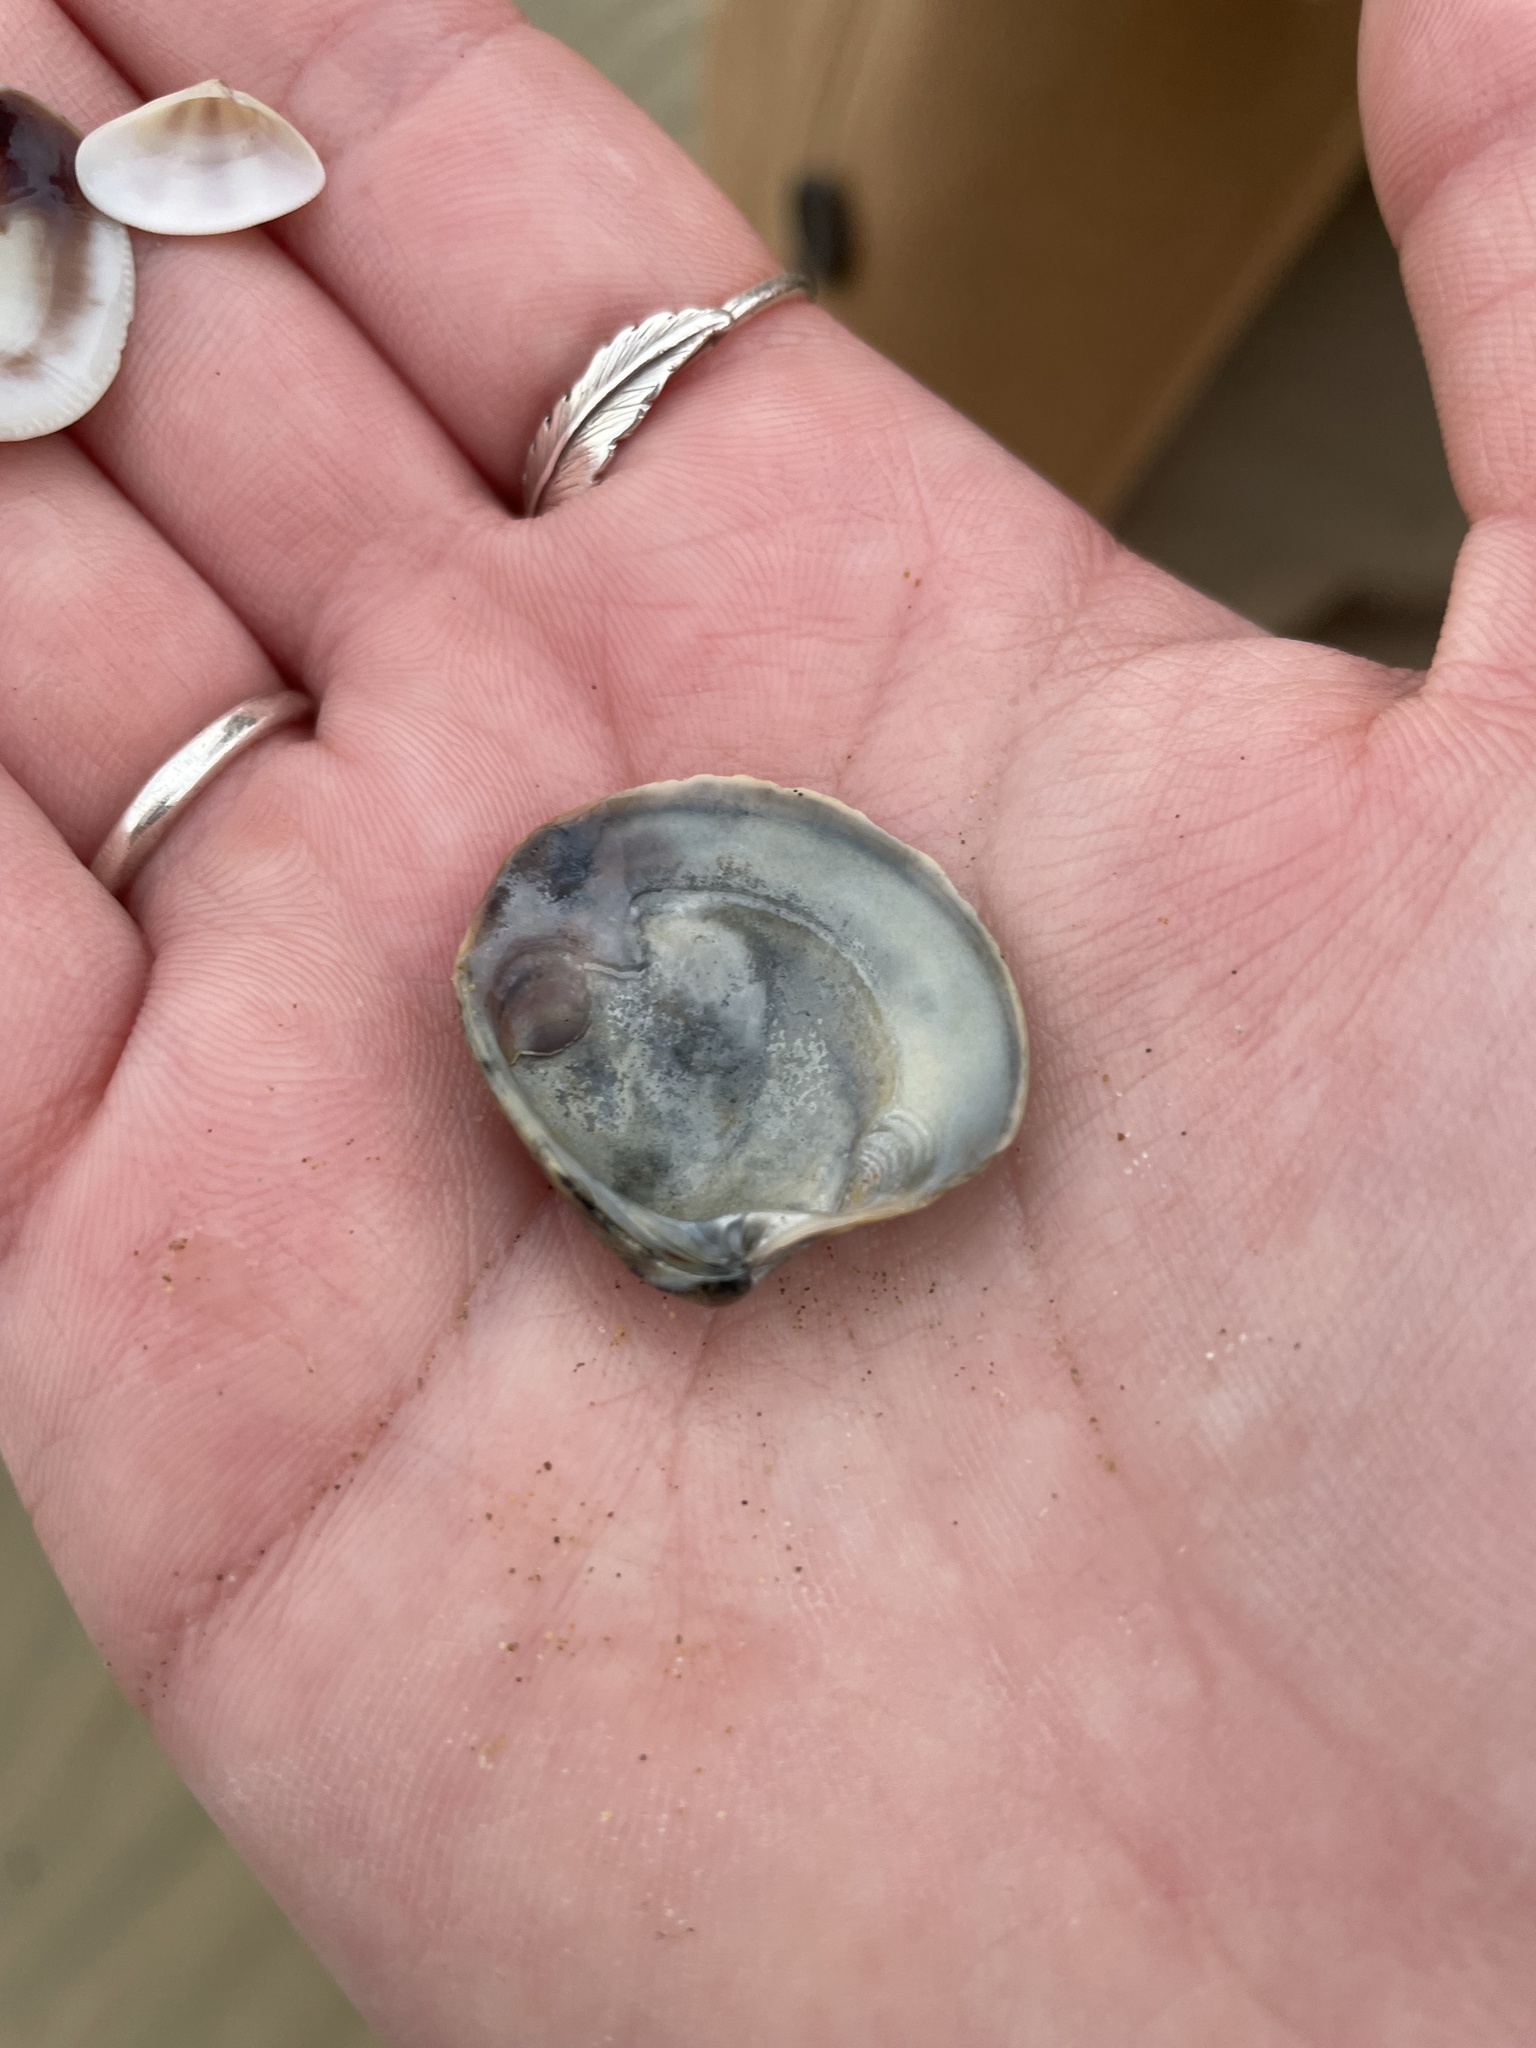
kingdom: Animalia
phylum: Mollusca
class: Bivalvia
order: Venerida
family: Veneridae
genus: Chamelea
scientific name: Chamelea gallina
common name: Chicken venus
